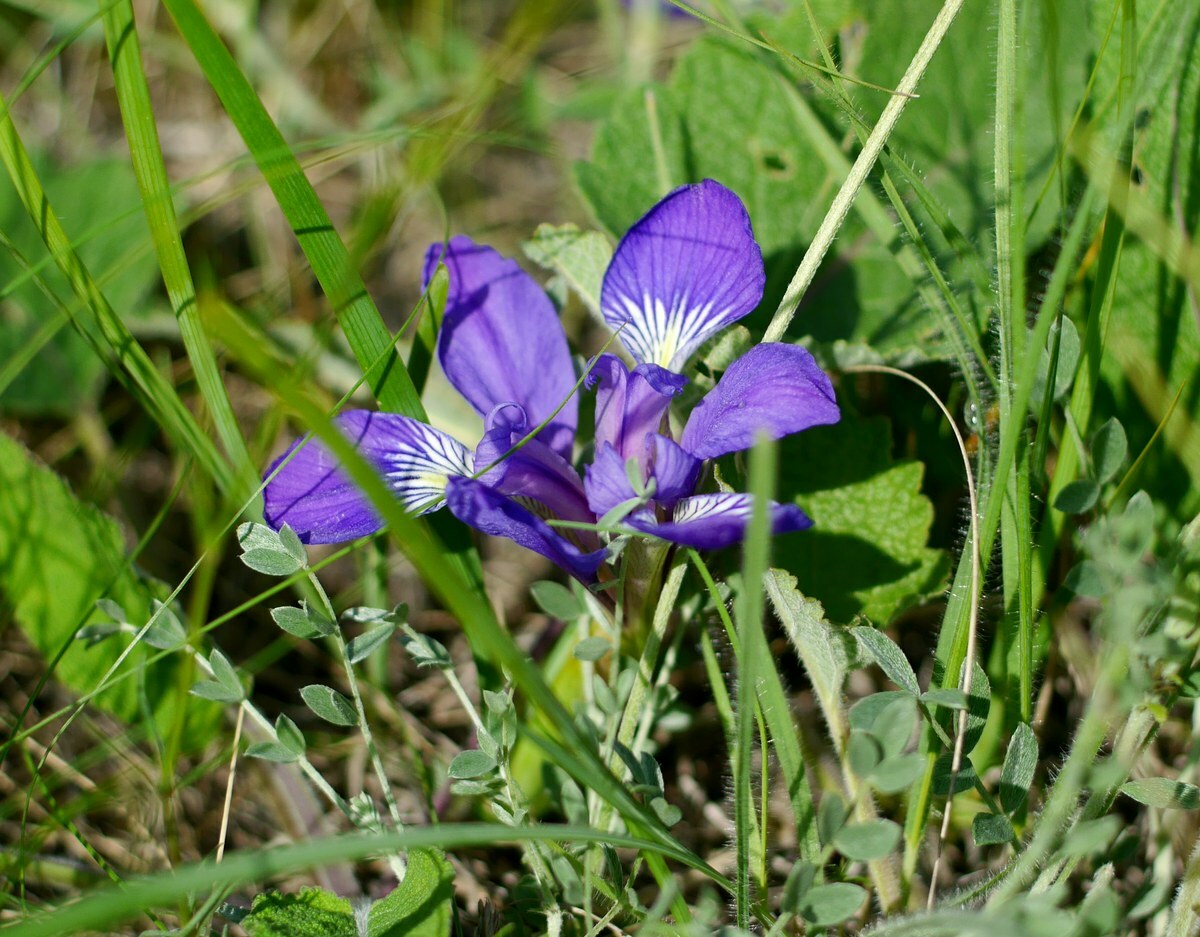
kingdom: Plantae
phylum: Tracheophyta
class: Liliopsida
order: Asparagales
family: Iridaceae
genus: Iris
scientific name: Iris pontica
